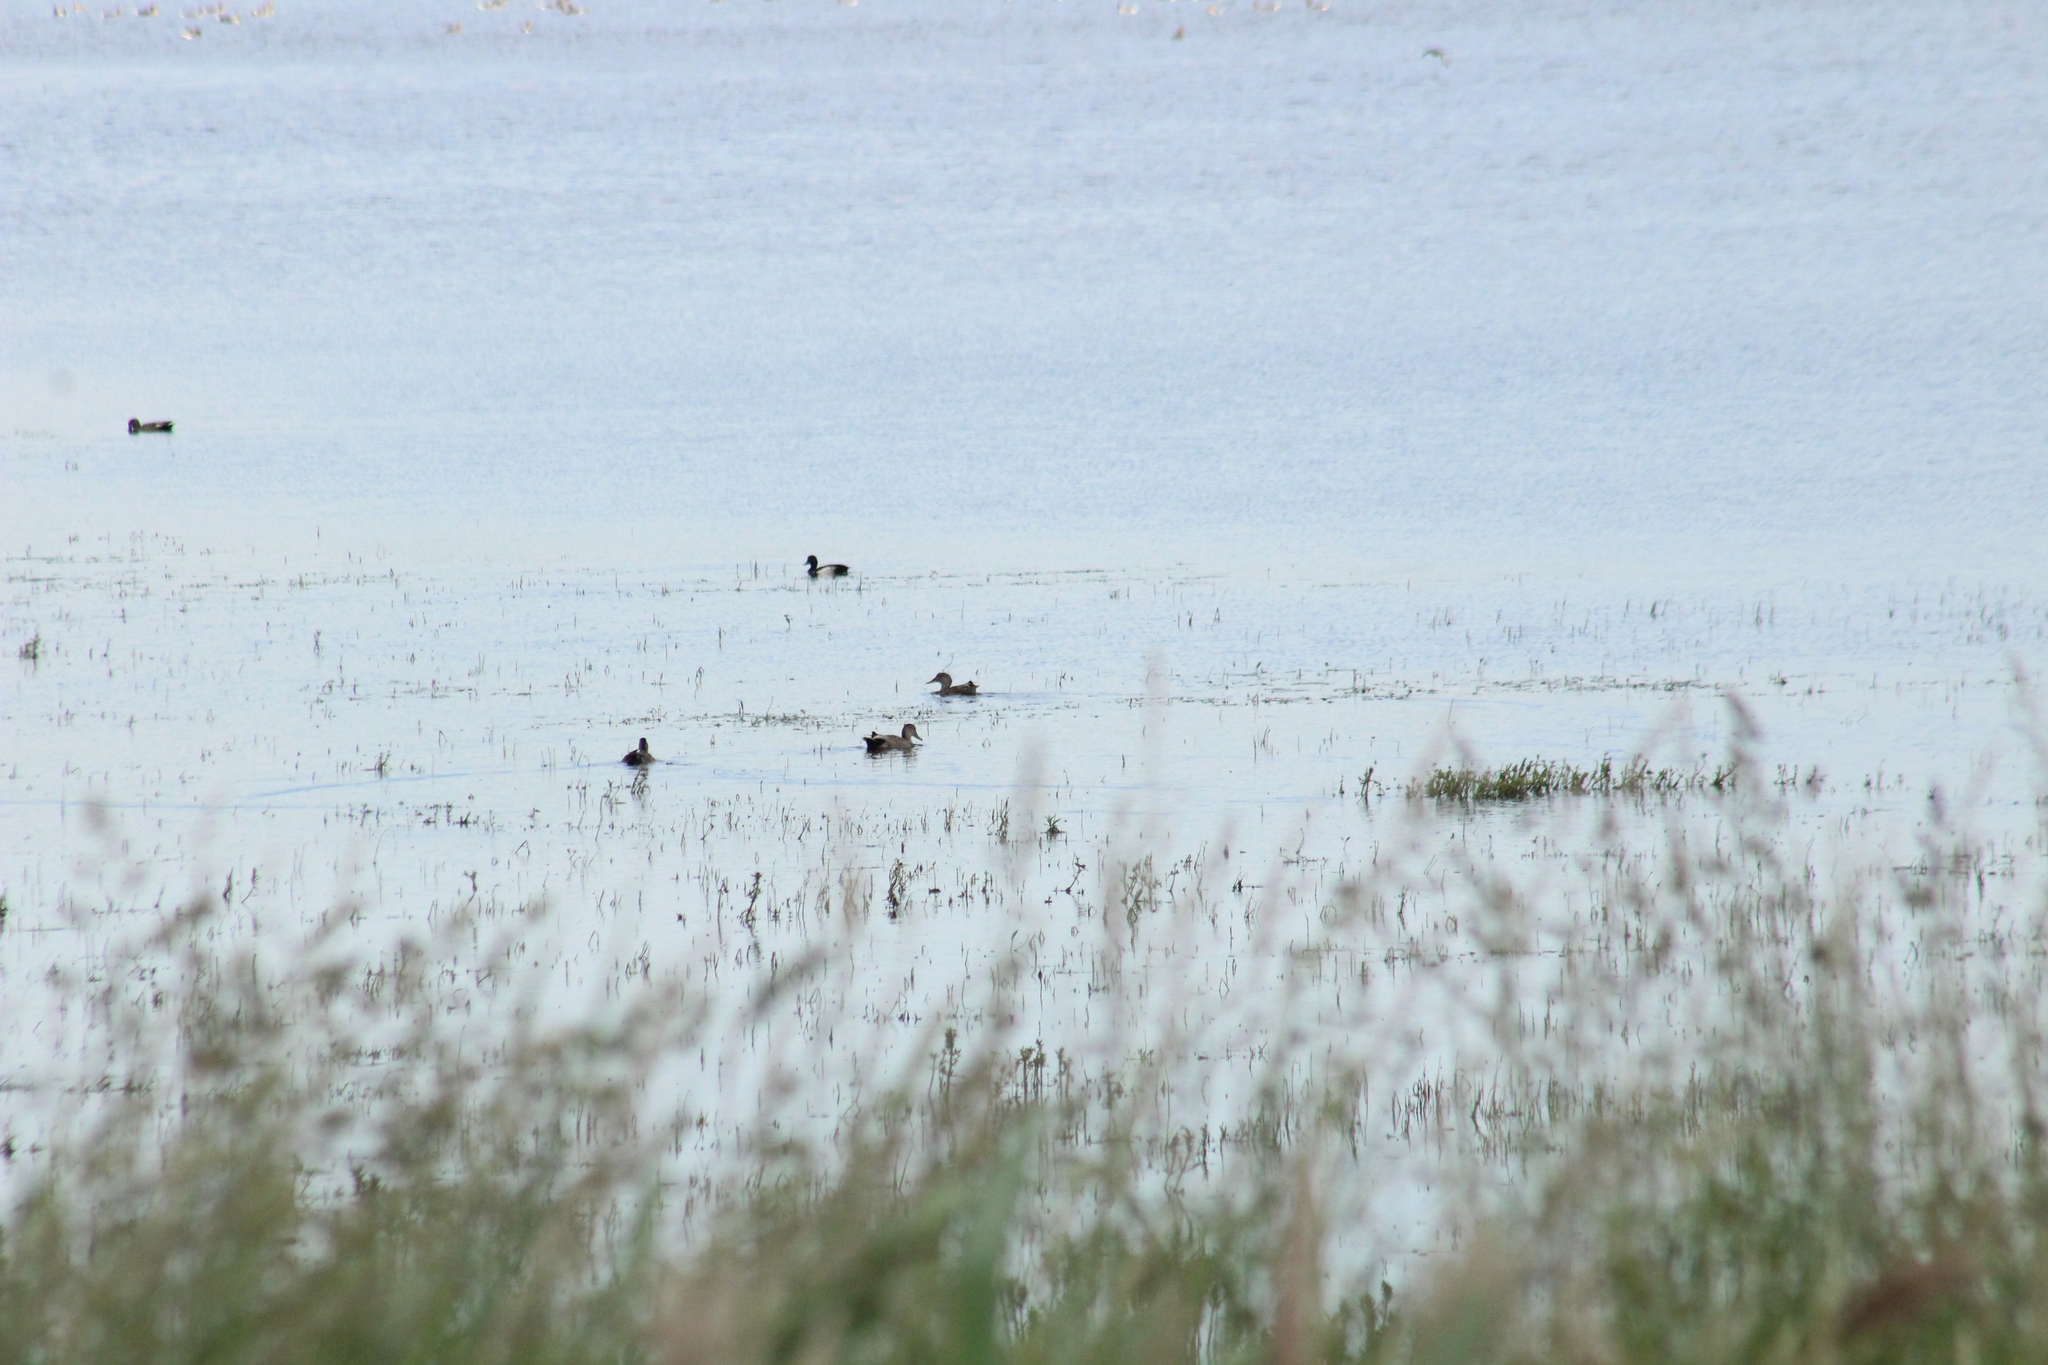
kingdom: Animalia
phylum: Chordata
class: Aves
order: Anseriformes
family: Anatidae
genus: Mareca
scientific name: Mareca strepera
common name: Gadwall
